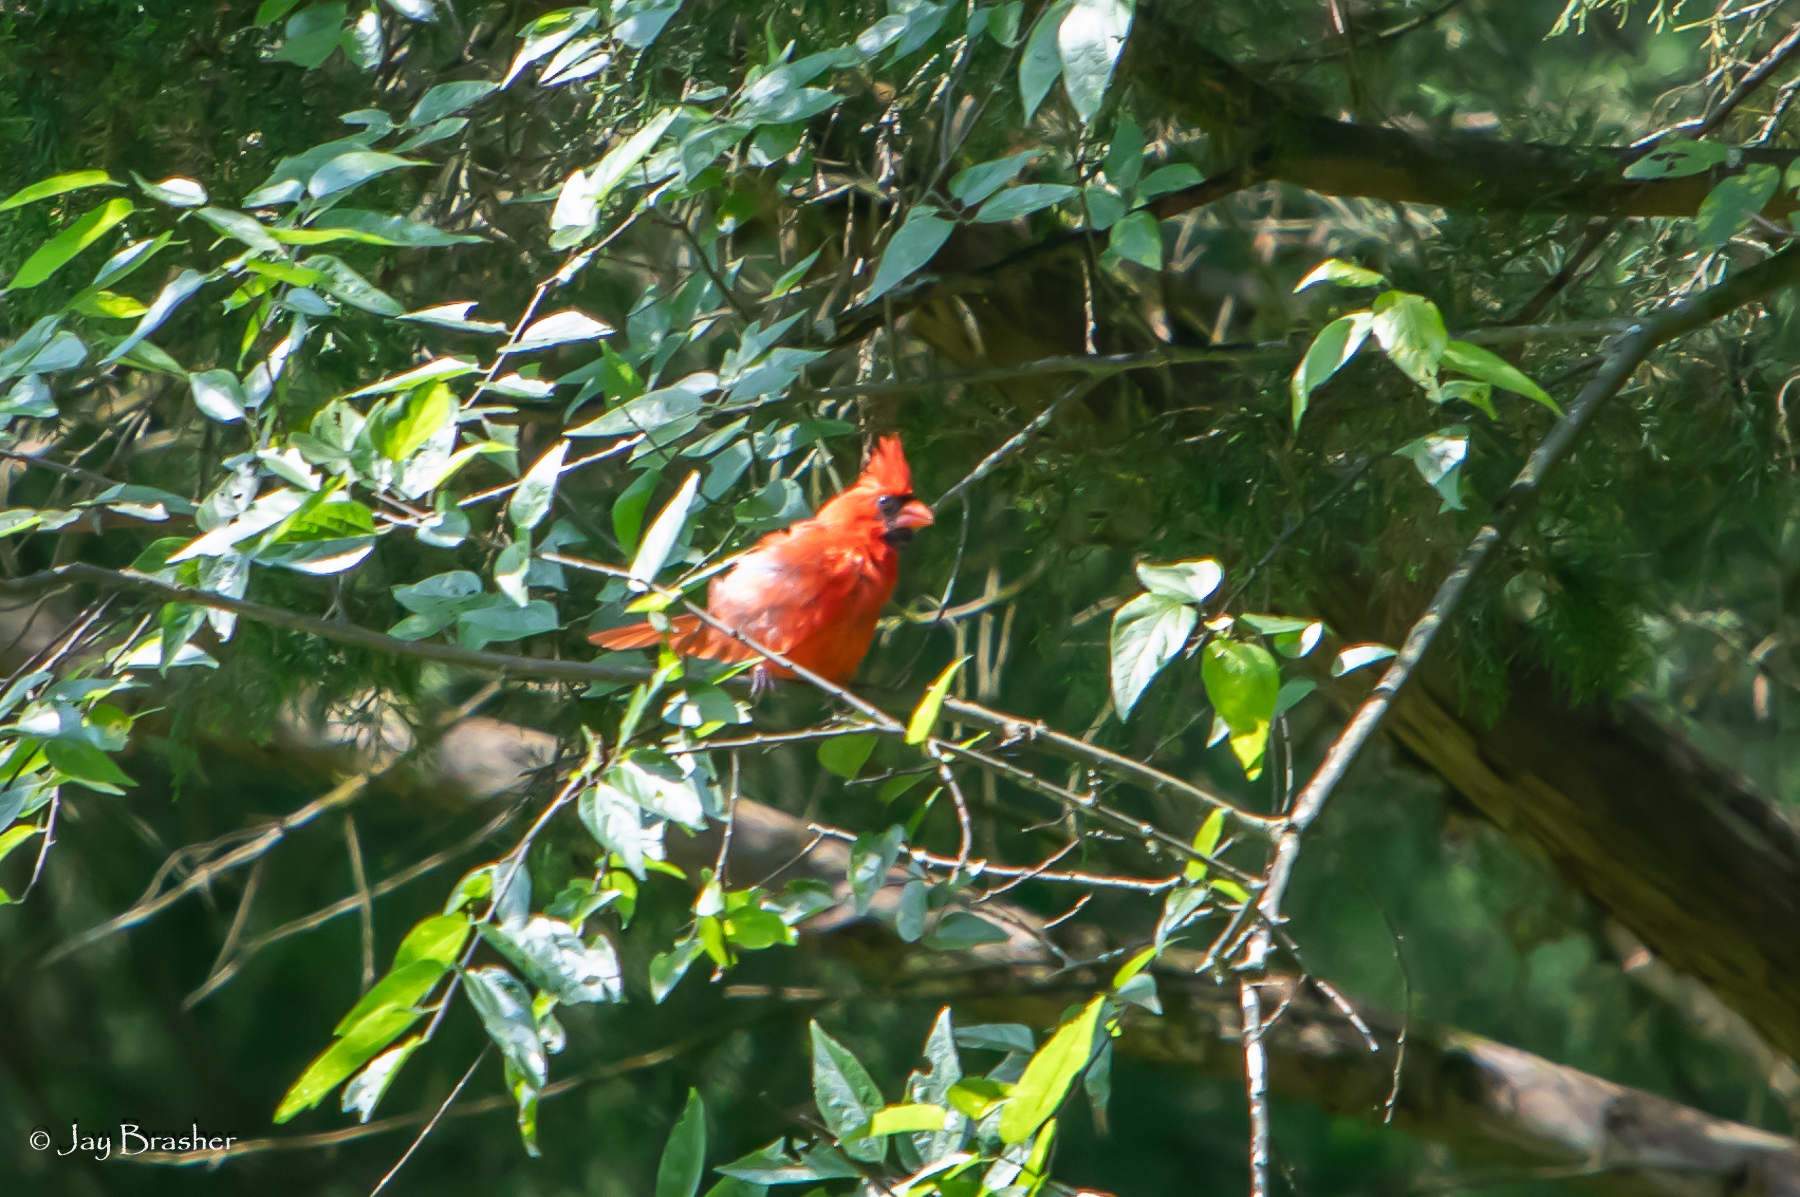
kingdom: Animalia
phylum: Chordata
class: Aves
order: Passeriformes
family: Cardinalidae
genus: Cardinalis
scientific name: Cardinalis cardinalis
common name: Northern cardinal
